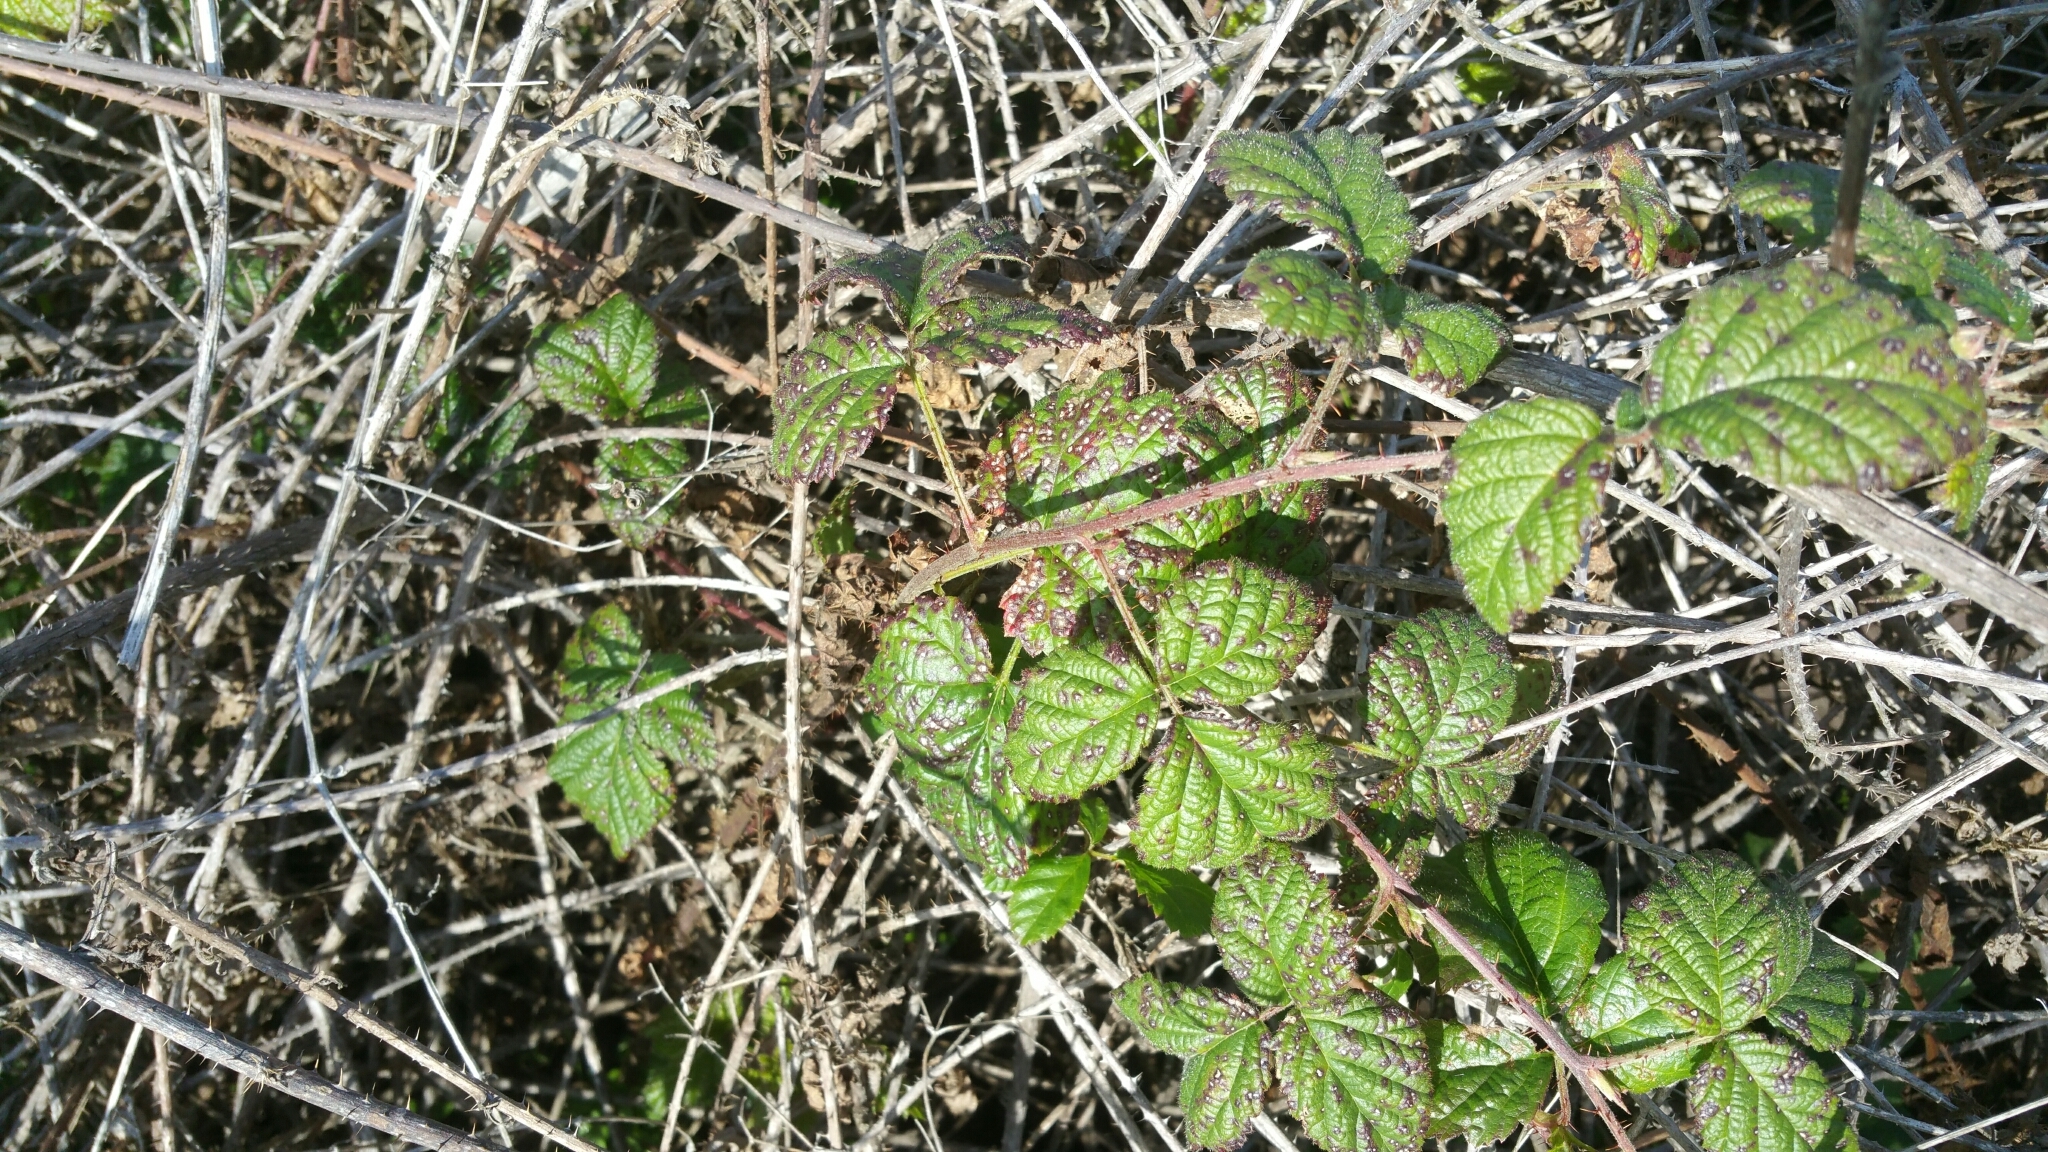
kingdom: Plantae
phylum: Tracheophyta
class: Magnoliopsida
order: Rosales
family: Rosaceae
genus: Rubus
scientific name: Rubus ursinus
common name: Pacific blackberry
